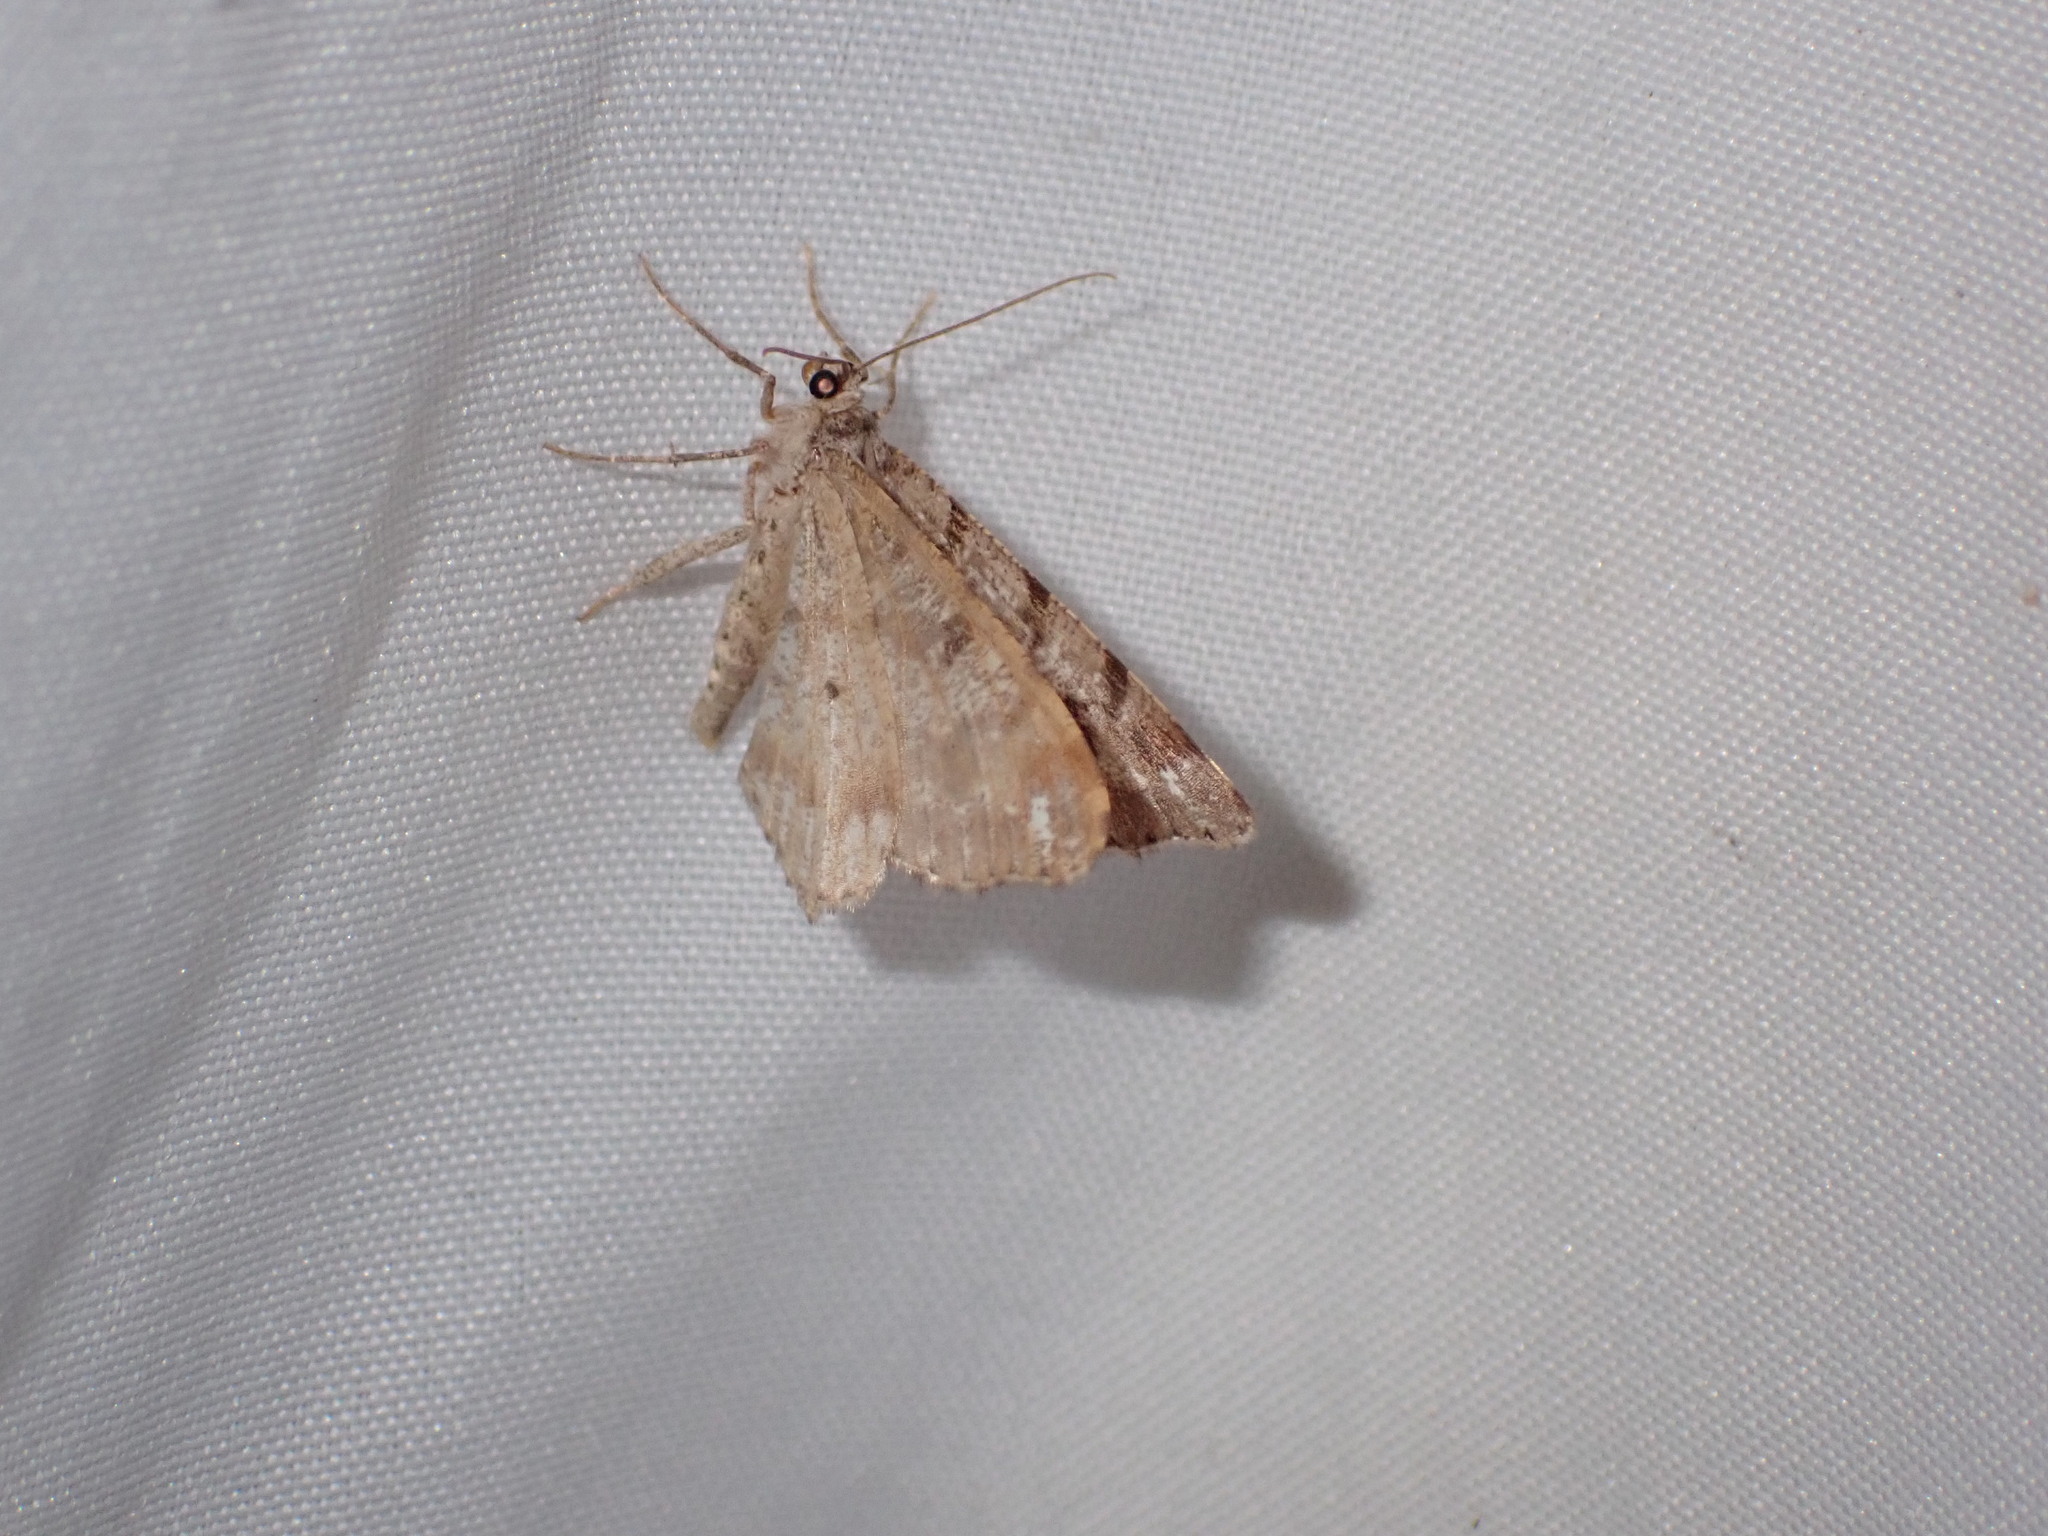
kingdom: Animalia
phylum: Arthropoda
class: Insecta
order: Lepidoptera
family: Geometridae
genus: Macaria
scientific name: Macaria signaria
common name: Dusky peacock
